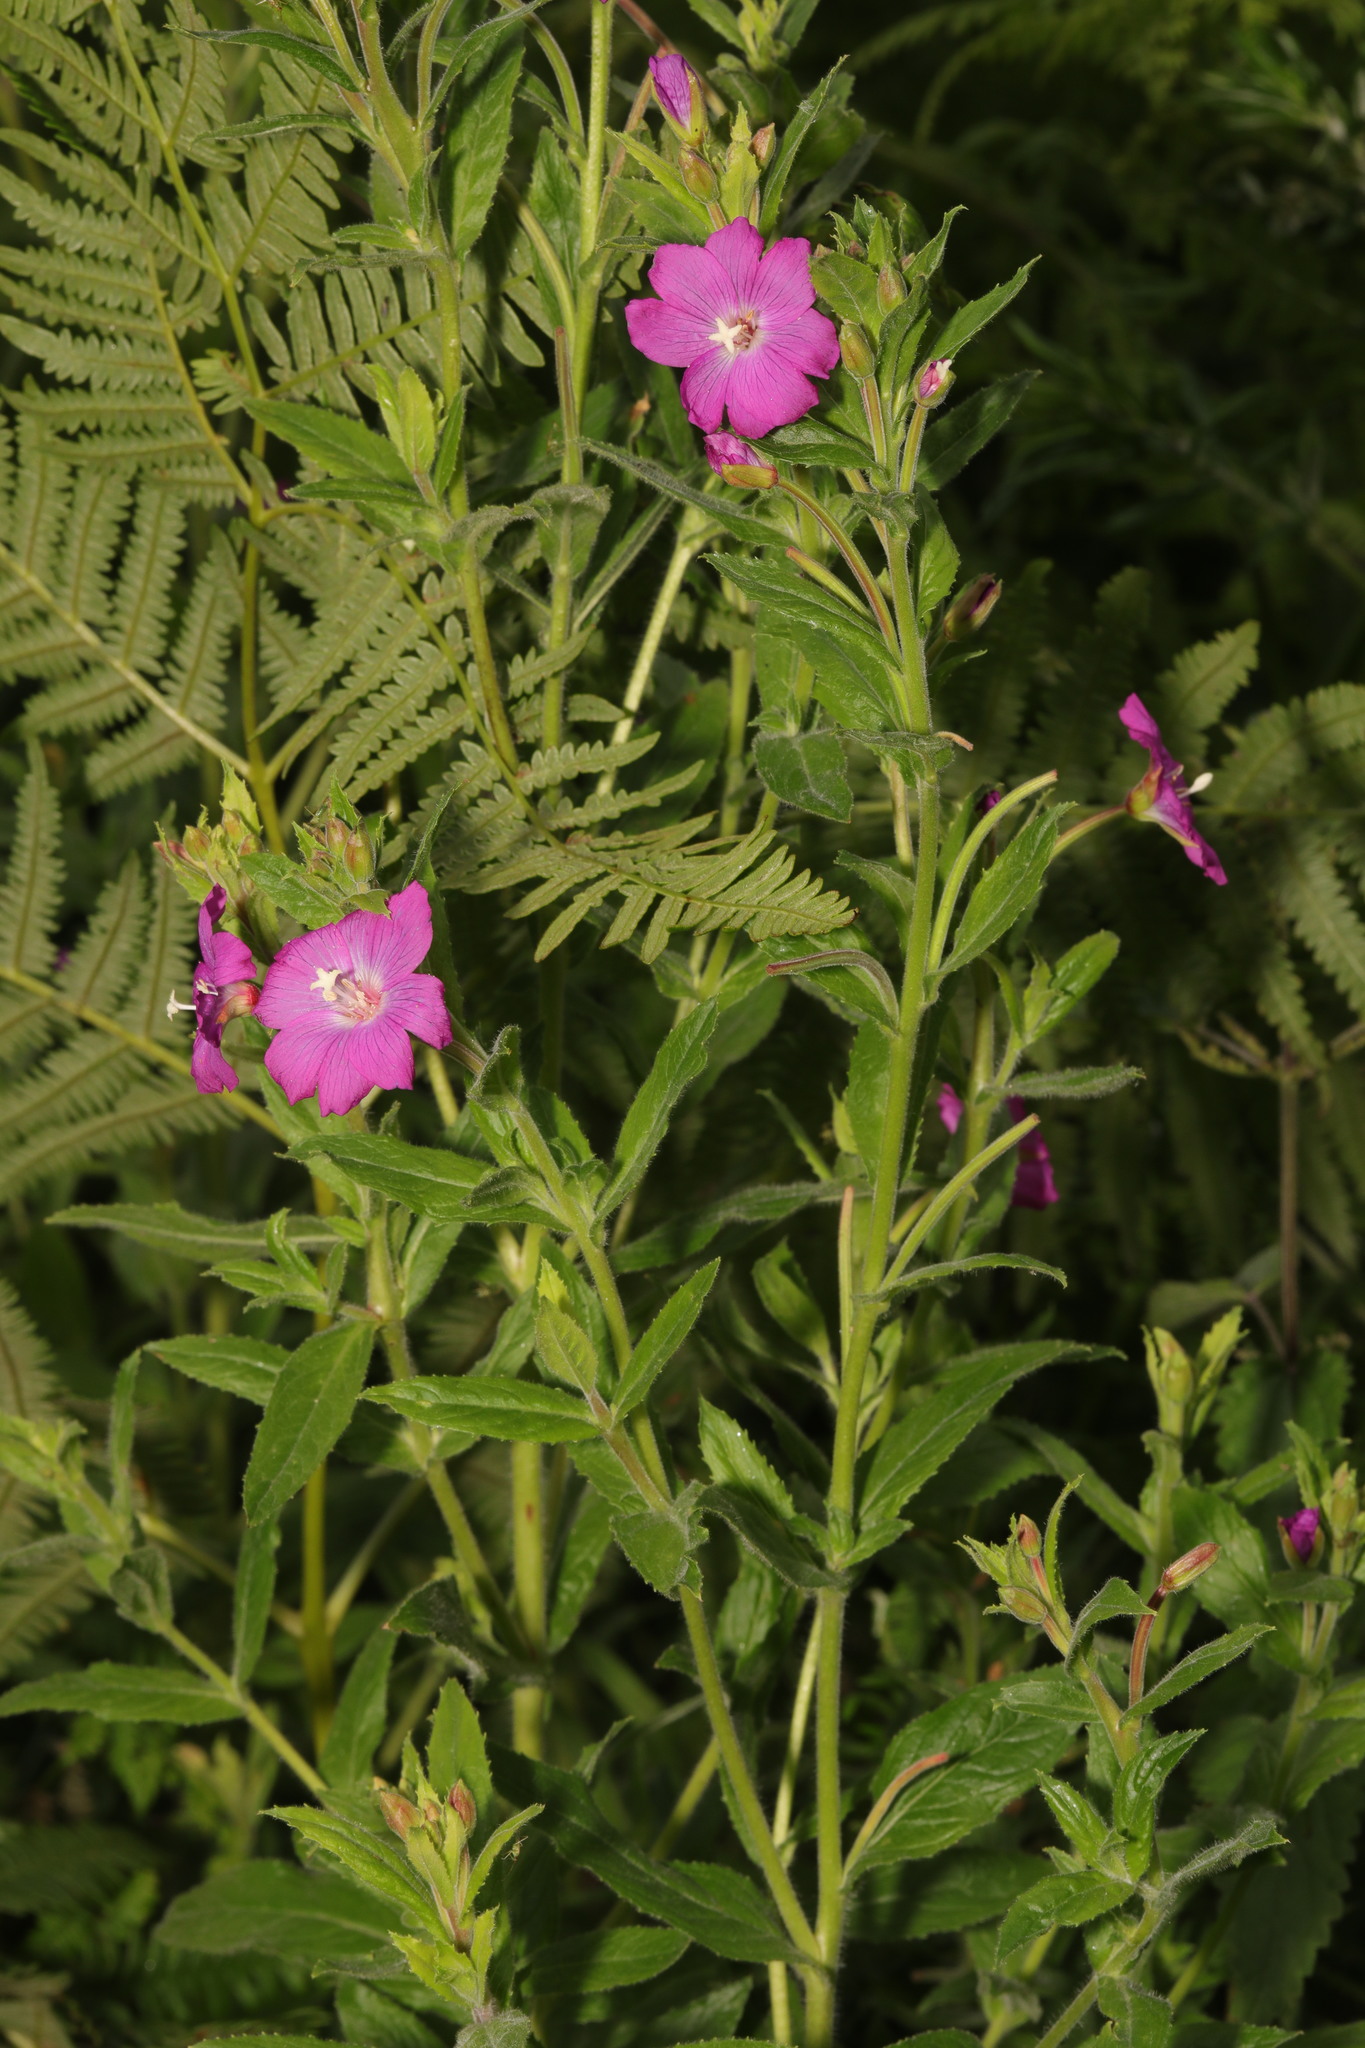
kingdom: Plantae
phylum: Tracheophyta
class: Magnoliopsida
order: Myrtales
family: Onagraceae
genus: Epilobium
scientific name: Epilobium hirsutum
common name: Great willowherb
